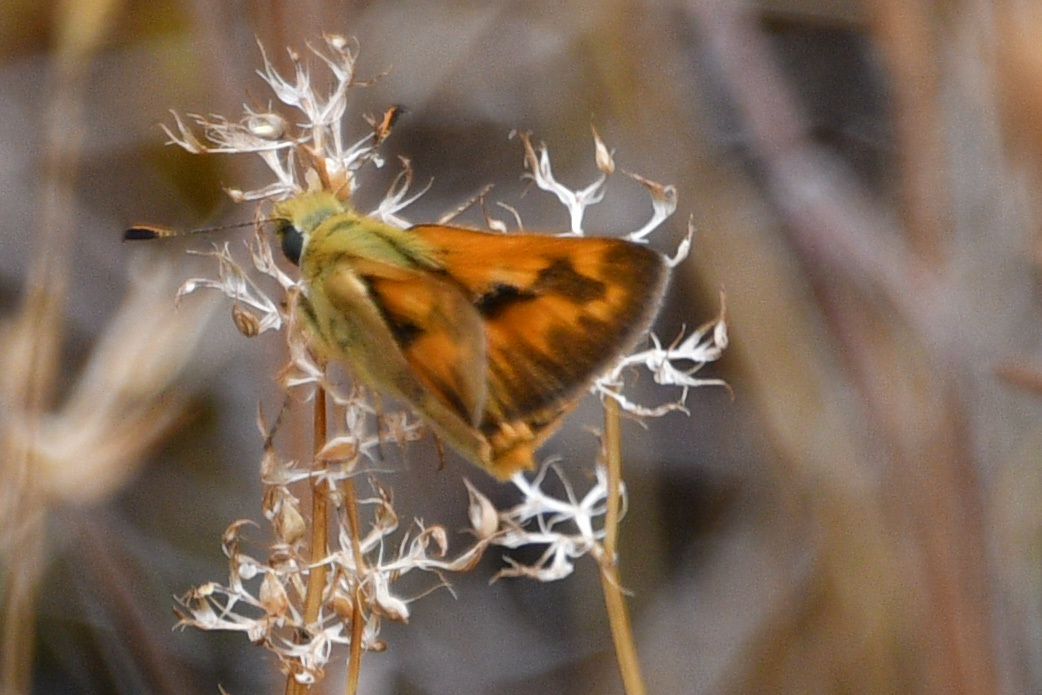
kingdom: Animalia
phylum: Arthropoda
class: Insecta
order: Lepidoptera
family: Hesperiidae
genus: Ochlodes
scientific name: Ochlodes sylvanoides
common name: Woodland skipper
